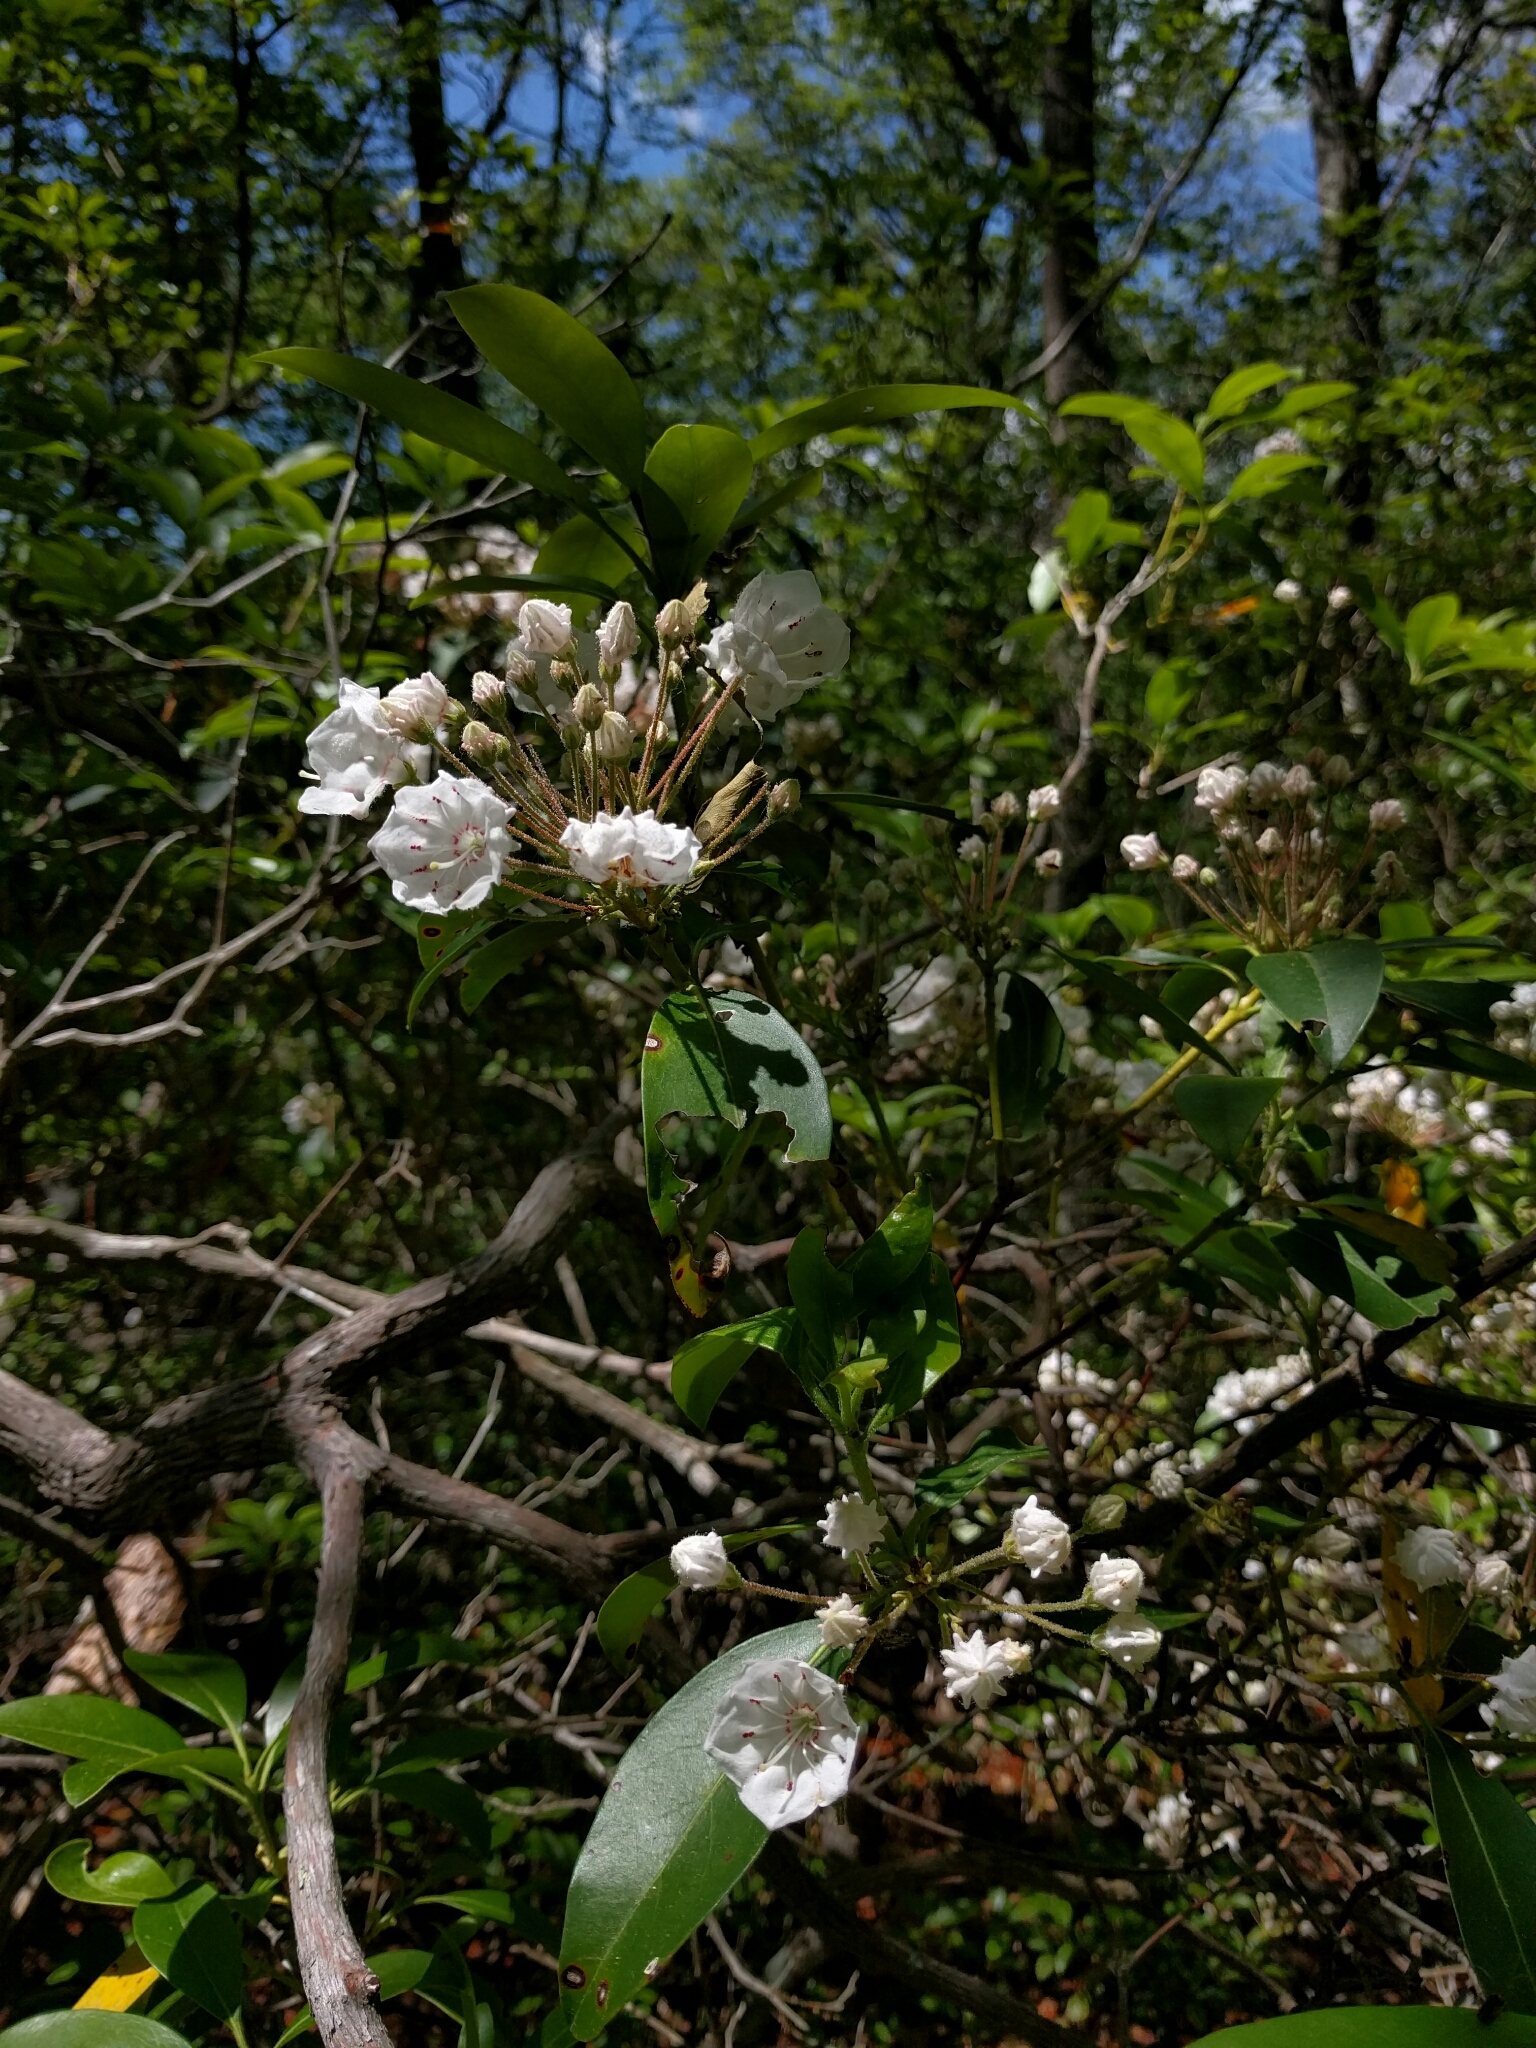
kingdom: Plantae
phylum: Tracheophyta
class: Magnoliopsida
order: Ericales
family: Ericaceae
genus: Kalmia
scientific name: Kalmia latifolia
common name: Mountain-laurel
